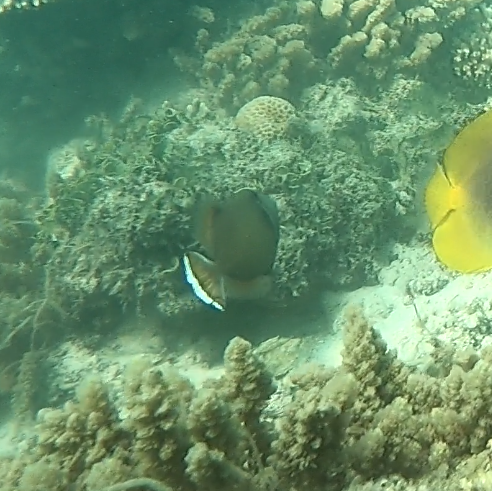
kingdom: Animalia
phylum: Chordata
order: Tetraodontiformes
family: Balistidae
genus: Sufflamen
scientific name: Sufflamen chrysopterum
